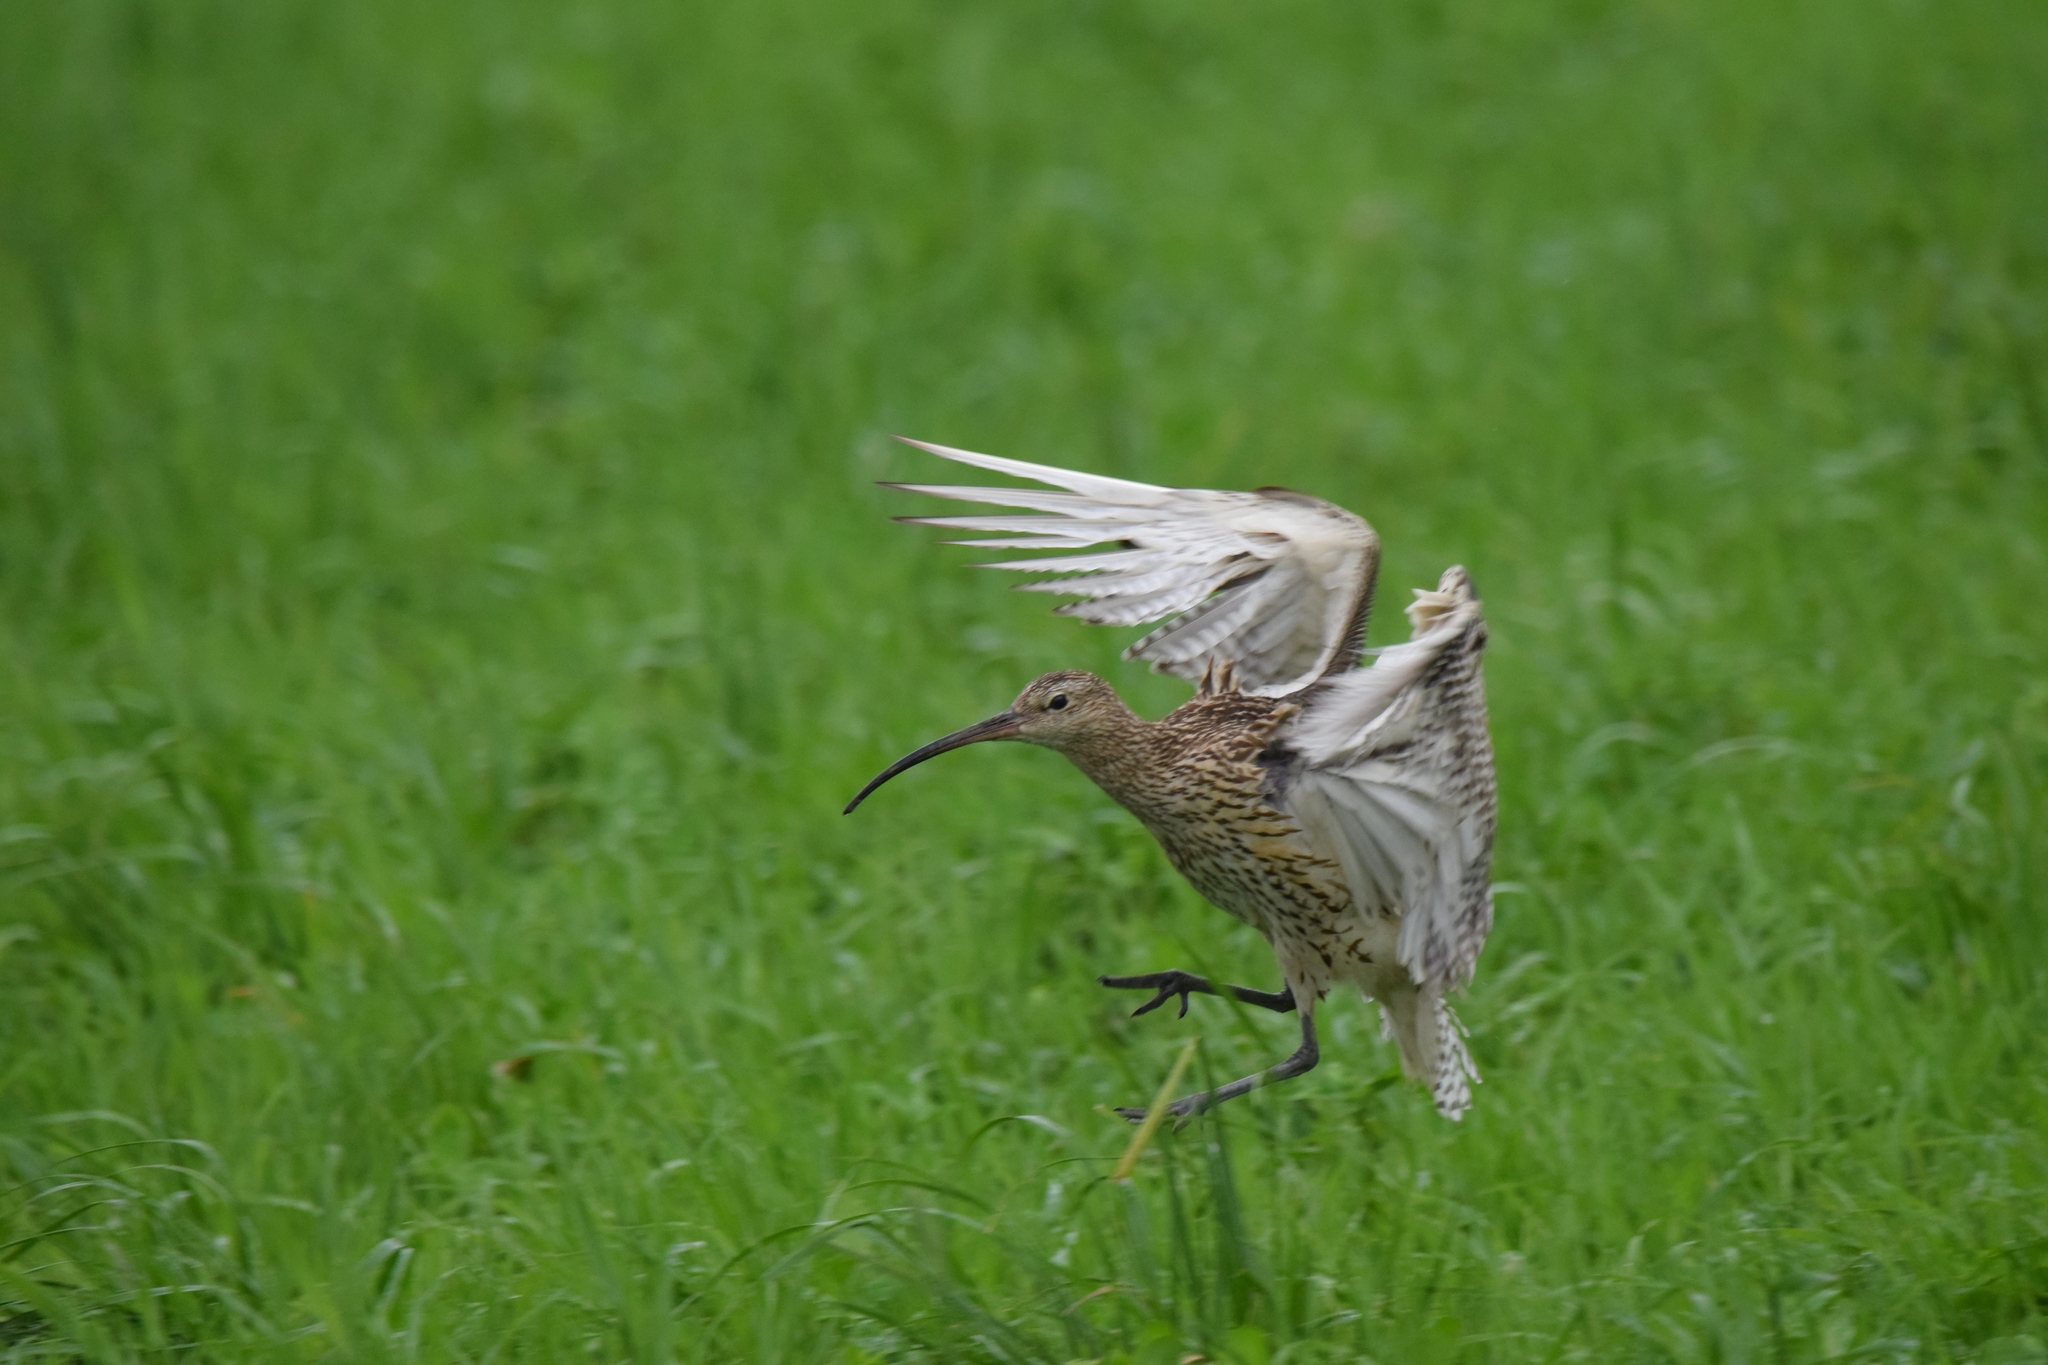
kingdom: Animalia
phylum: Chordata
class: Aves
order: Charadriiformes
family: Scolopacidae
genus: Numenius
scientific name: Numenius arquata
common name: Eurasian curlew
